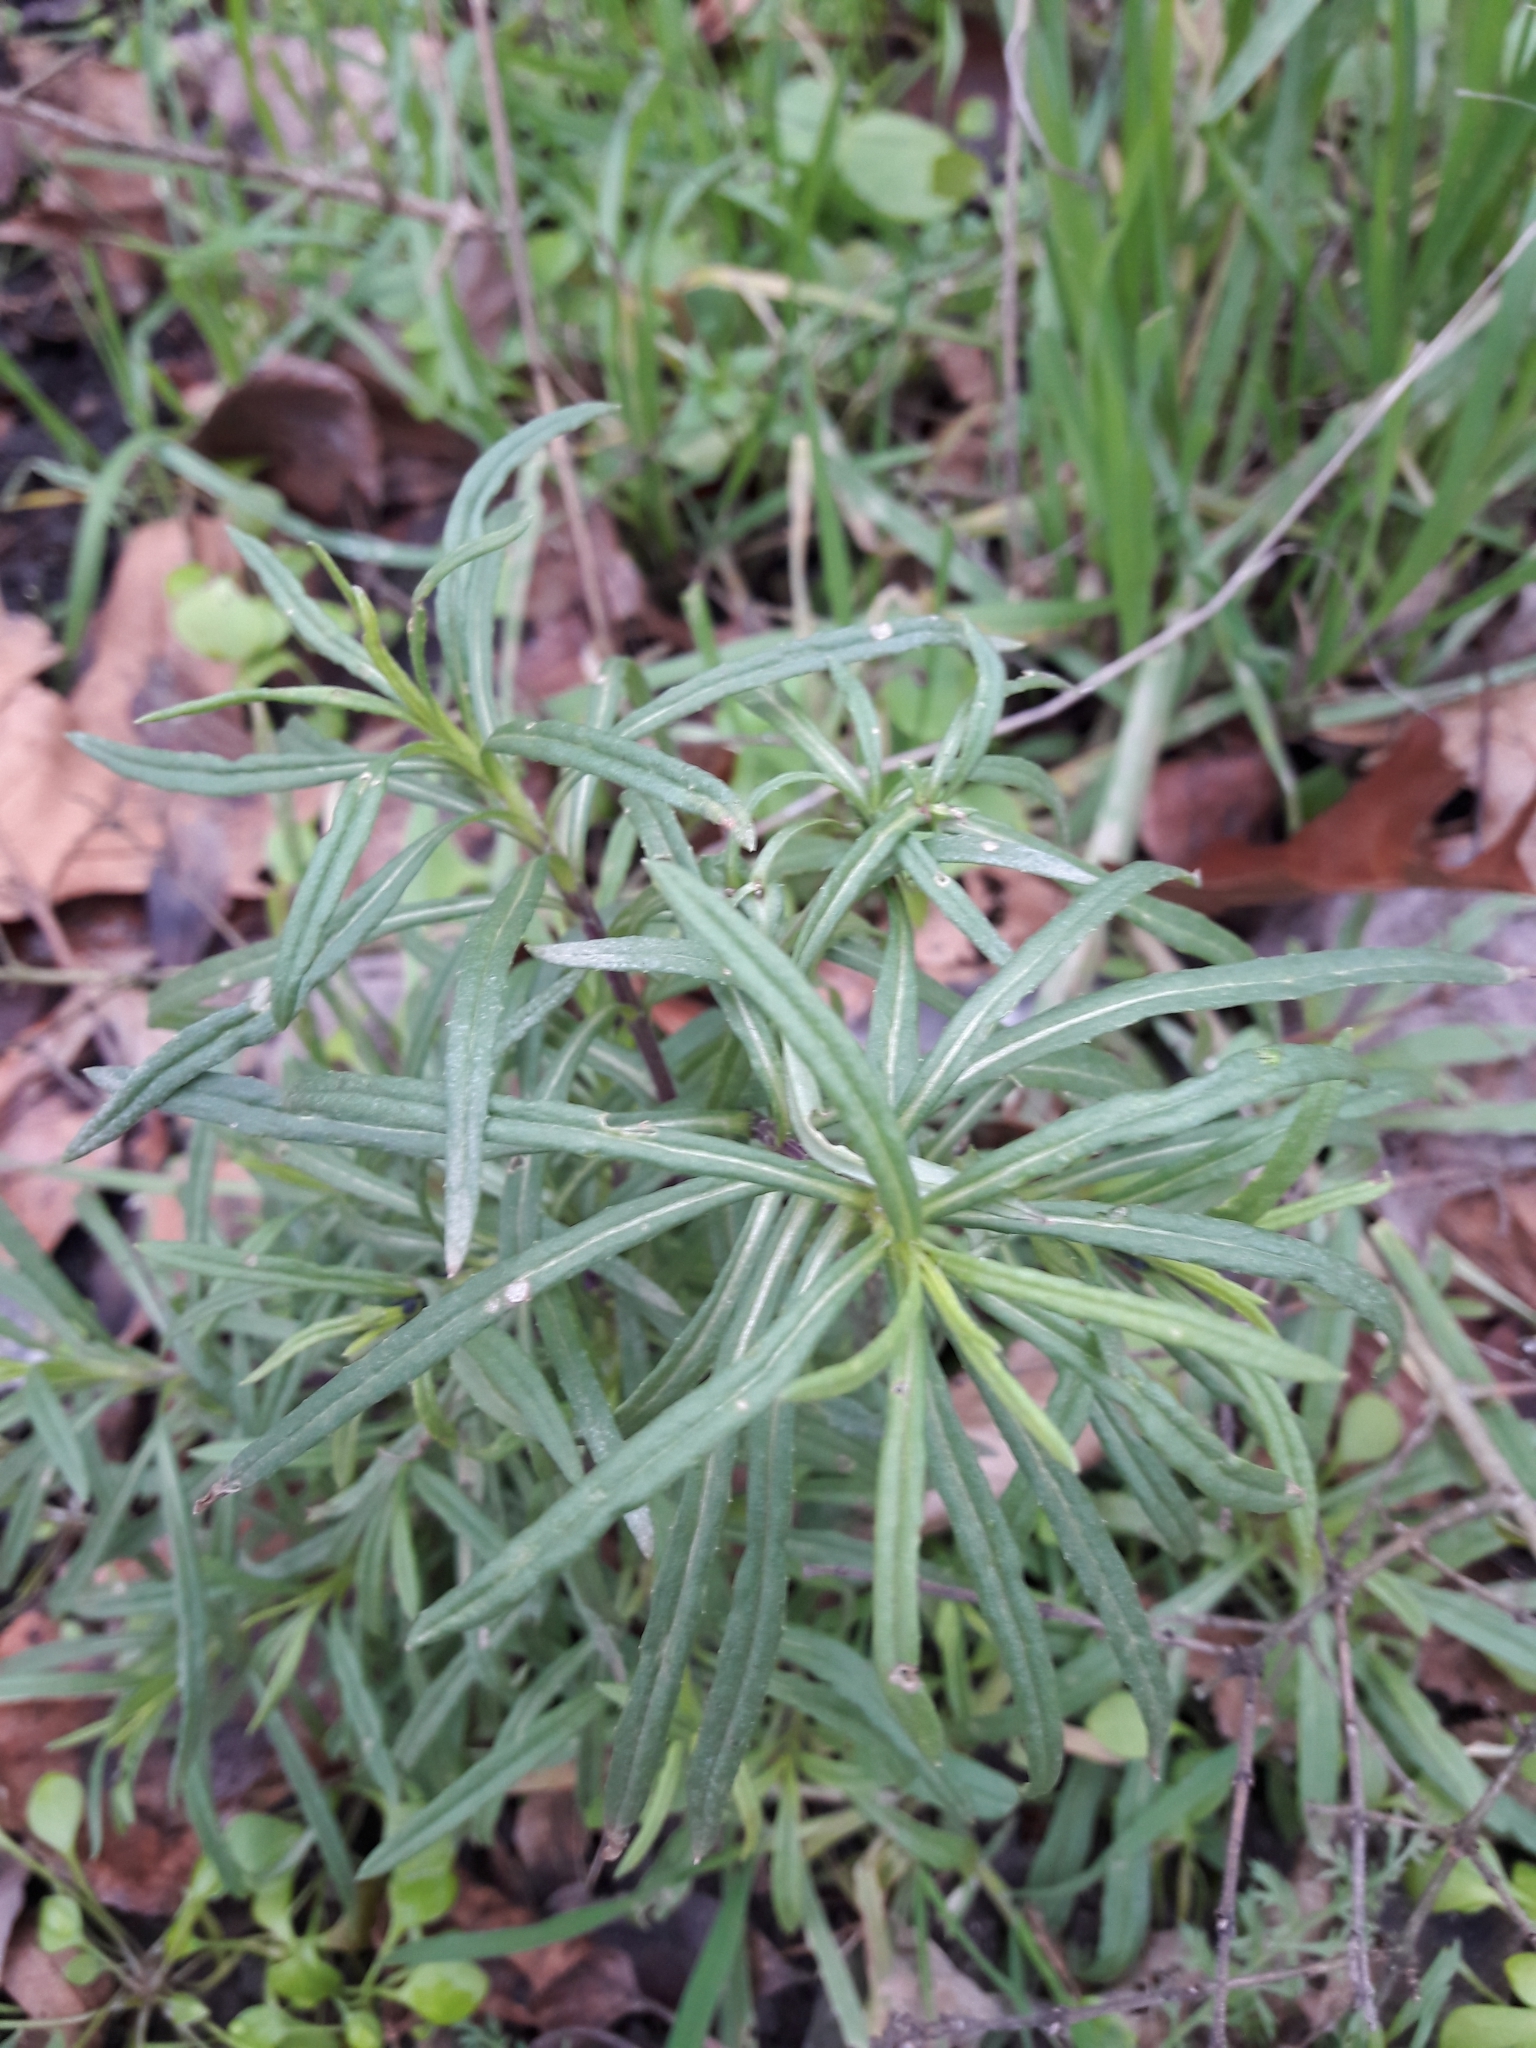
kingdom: Plantae
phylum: Tracheophyta
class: Magnoliopsida
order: Lamiales
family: Plantaginaceae
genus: Linaria
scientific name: Linaria vulgaris
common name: Butter and eggs
